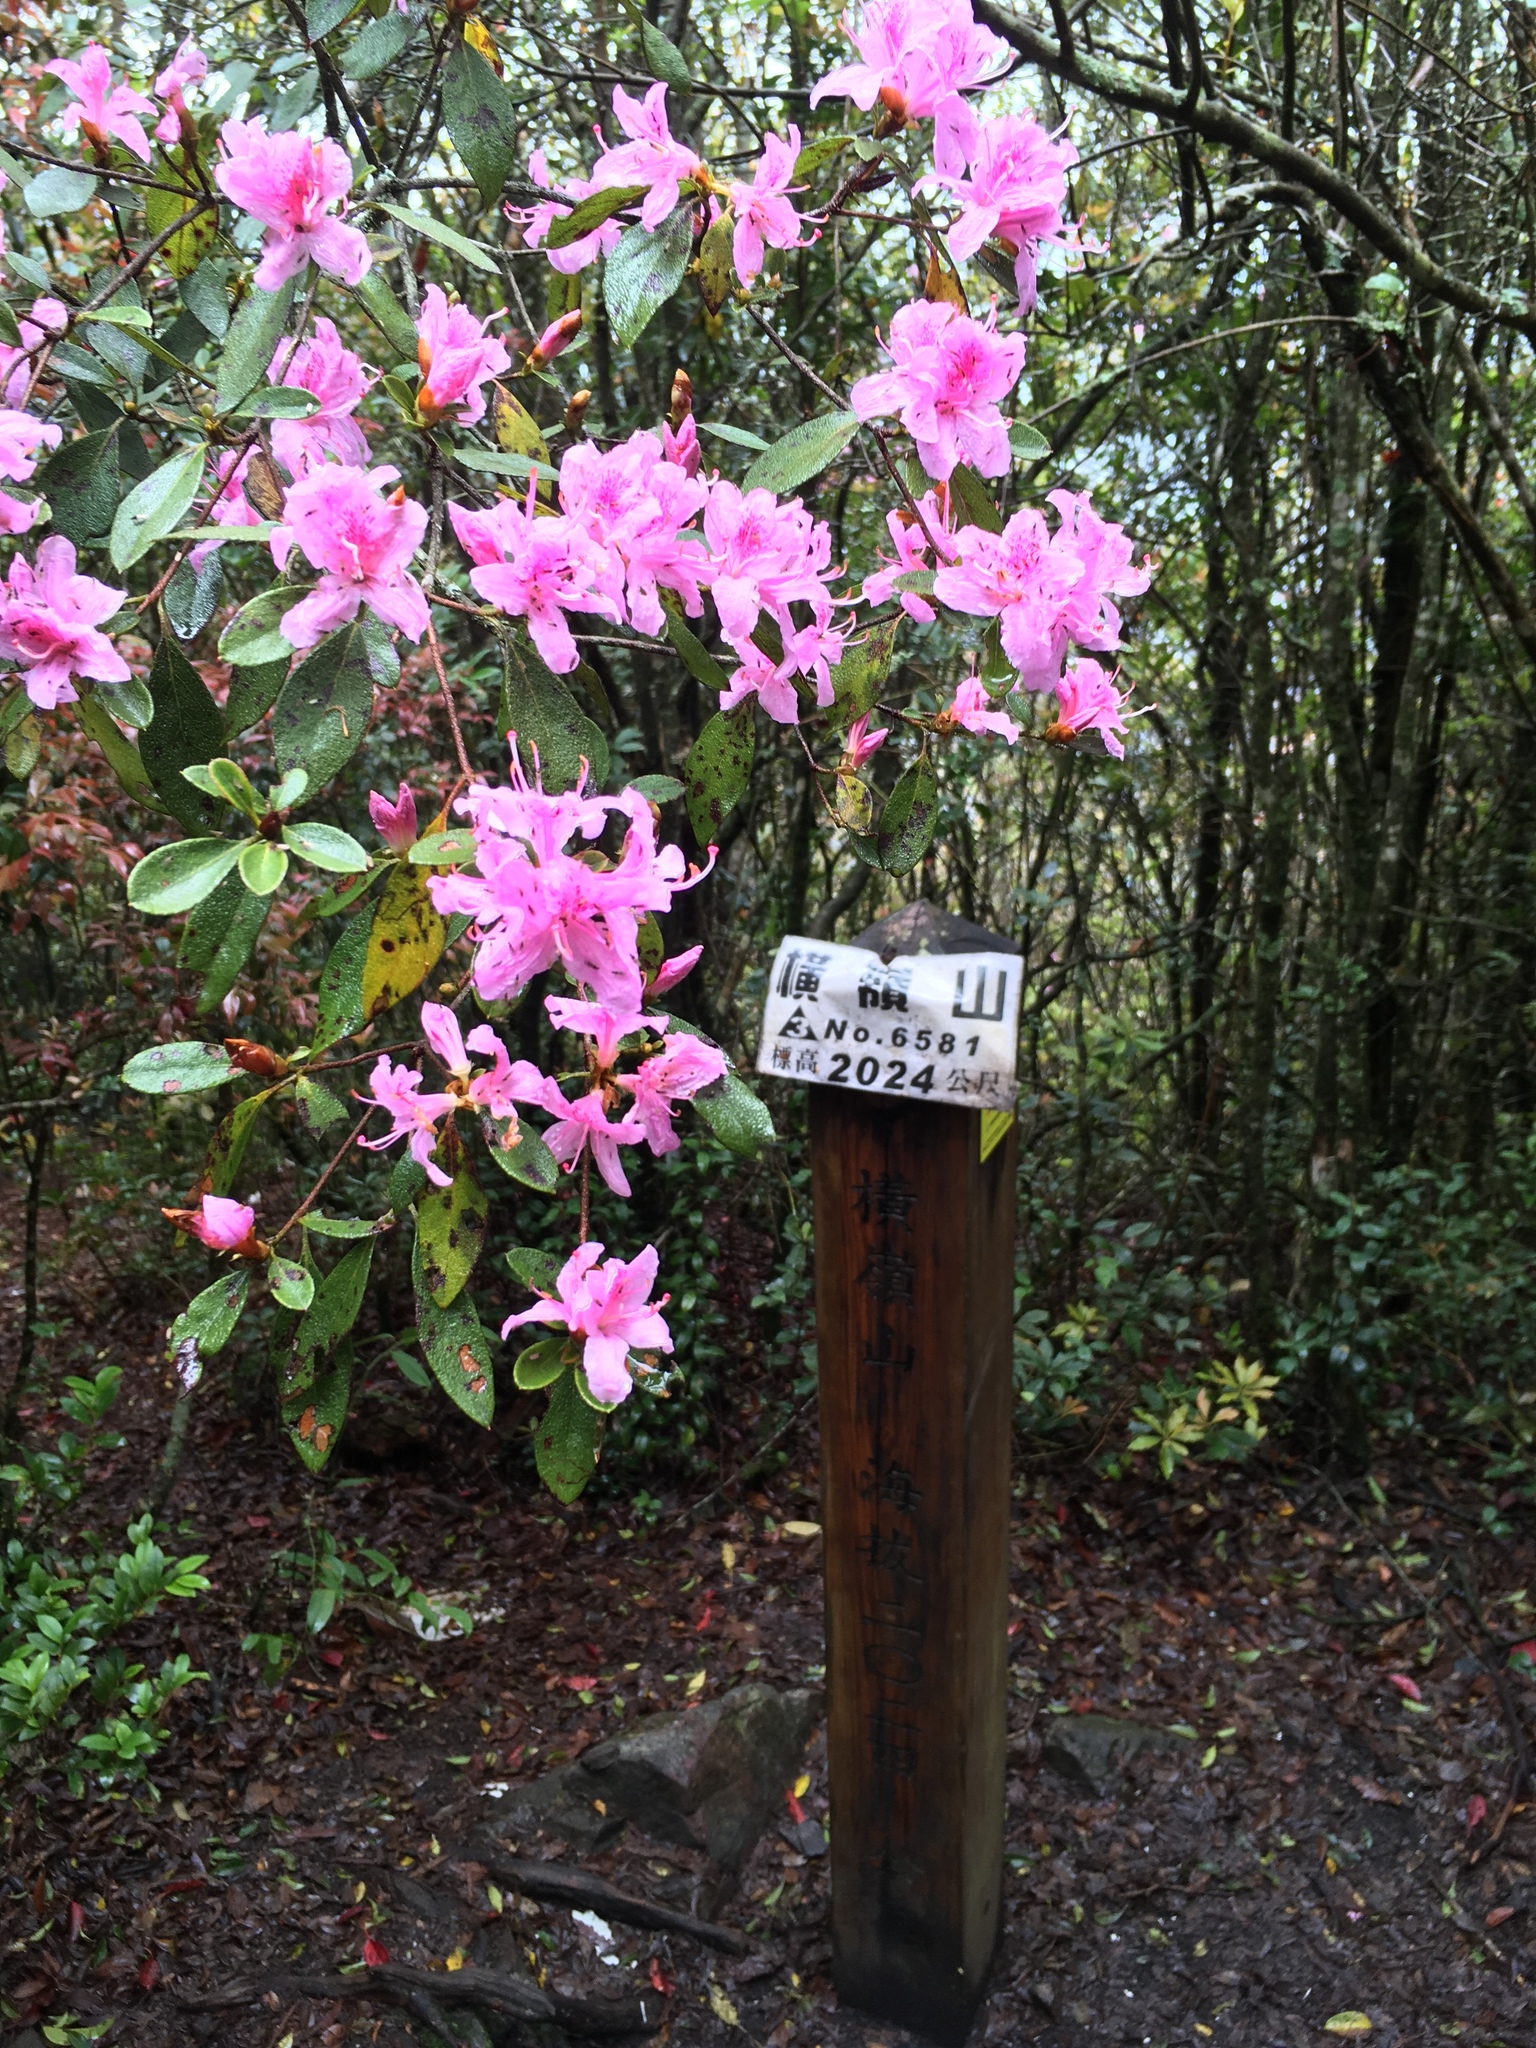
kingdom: Plantae
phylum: Tracheophyta
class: Magnoliopsida
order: Ericales
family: Ericaceae
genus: Rhododendron
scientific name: Rhododendron breviperulatum
